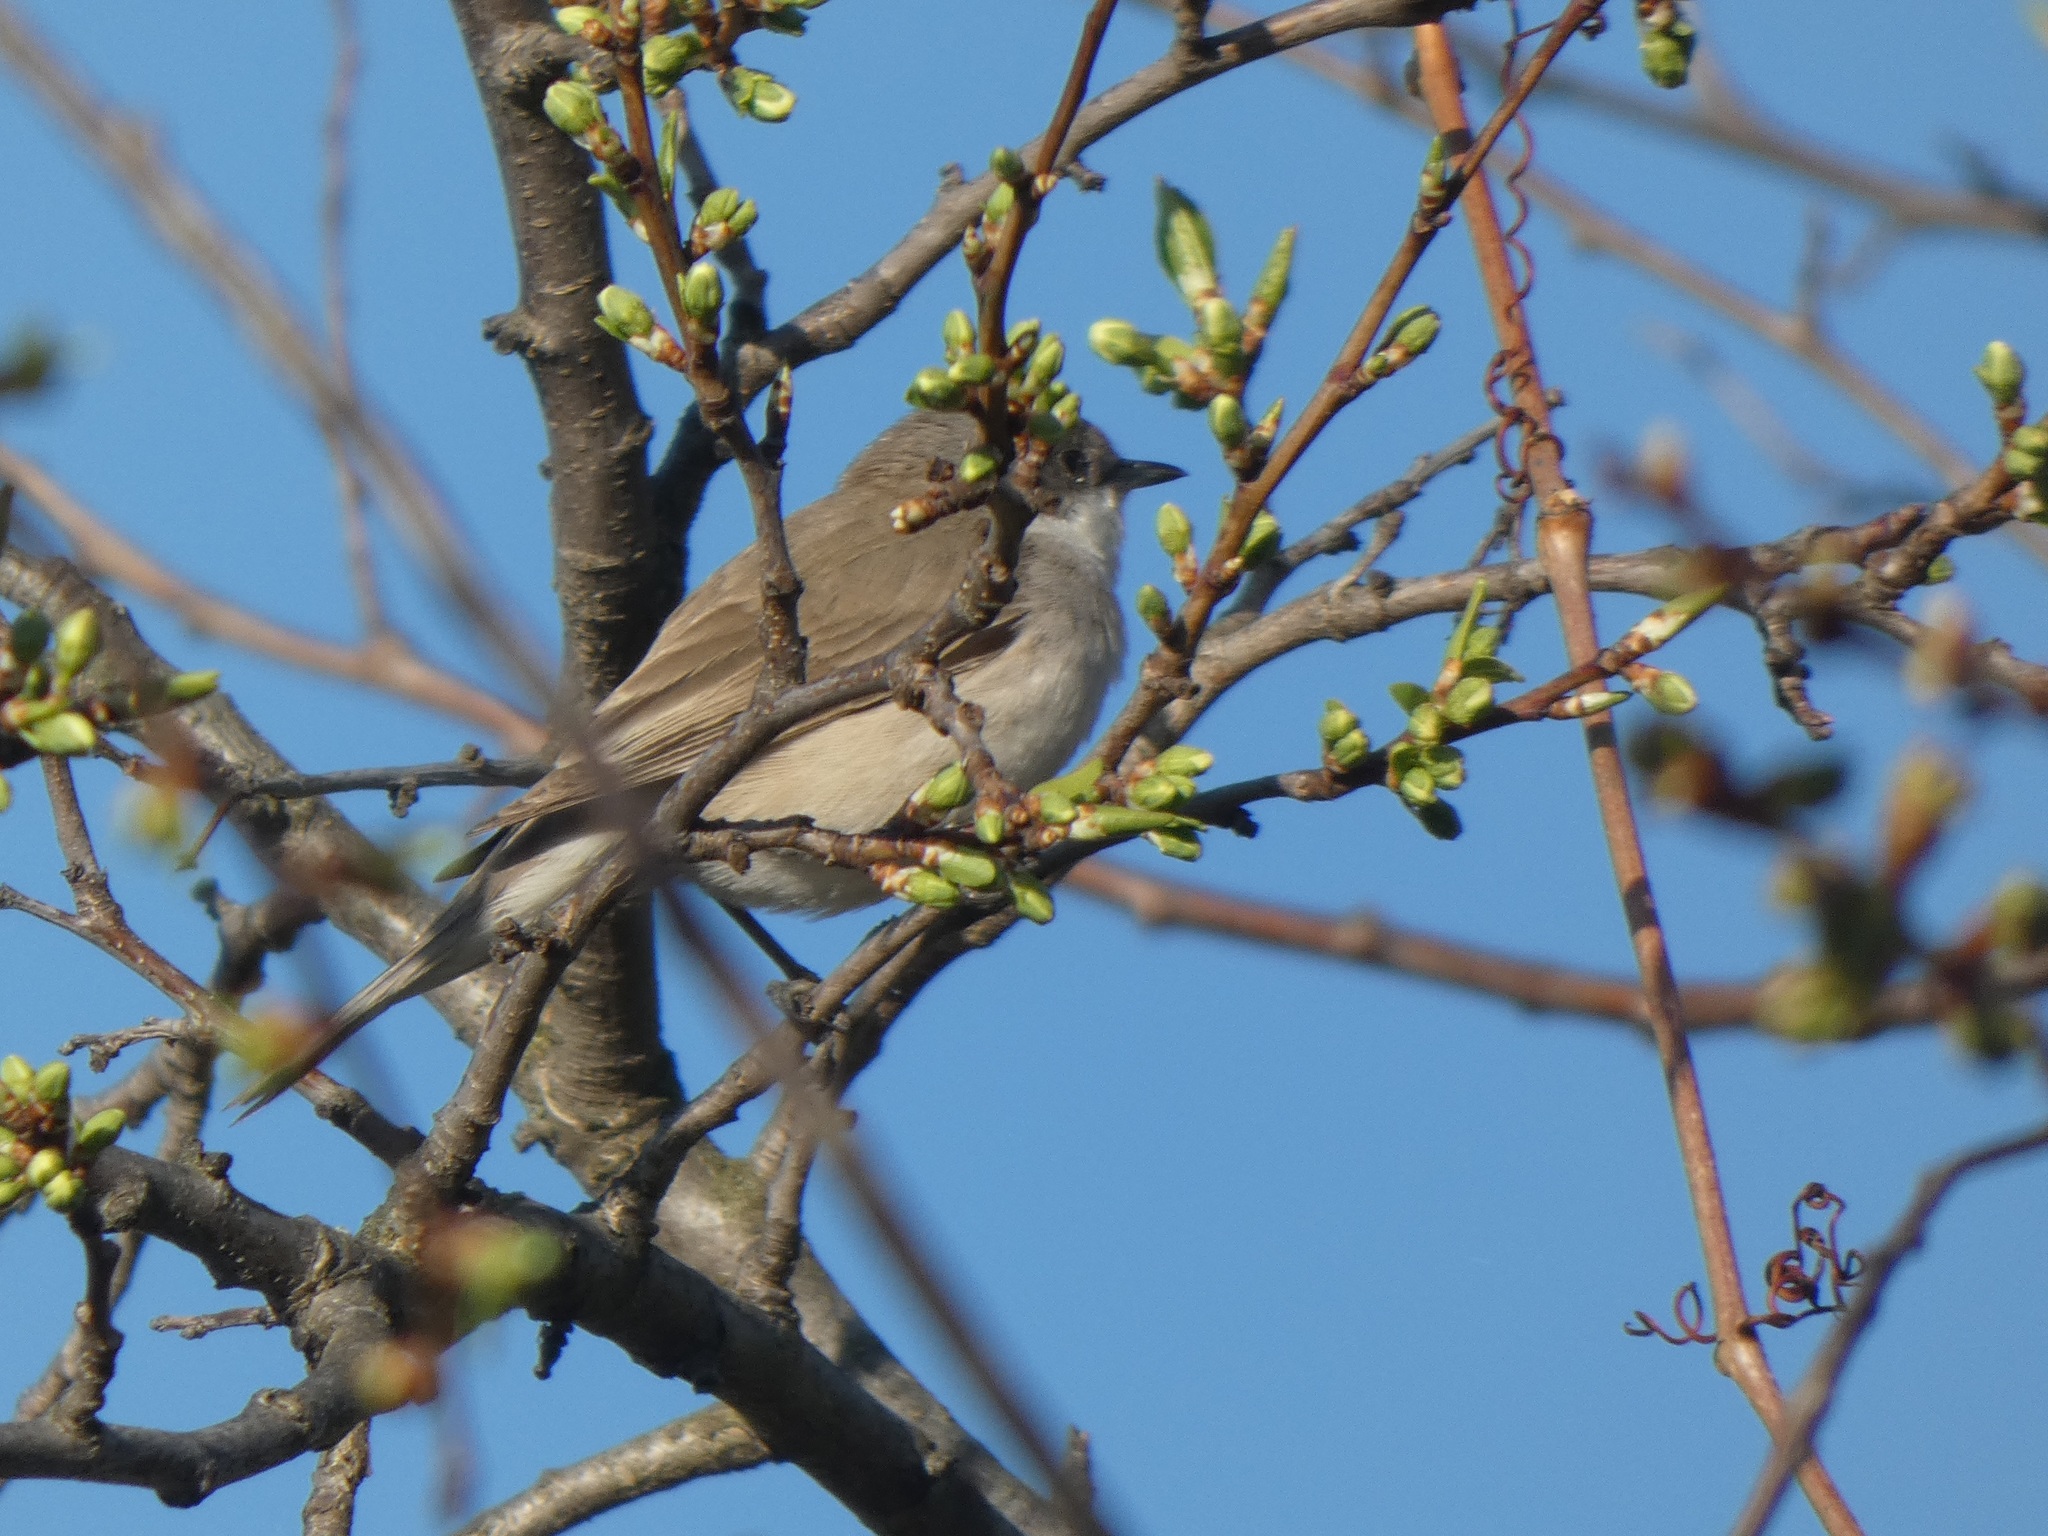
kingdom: Animalia
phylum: Chordata
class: Aves
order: Passeriformes
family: Sylviidae
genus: Sylvia
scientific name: Sylvia curruca
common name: Lesser whitethroat
